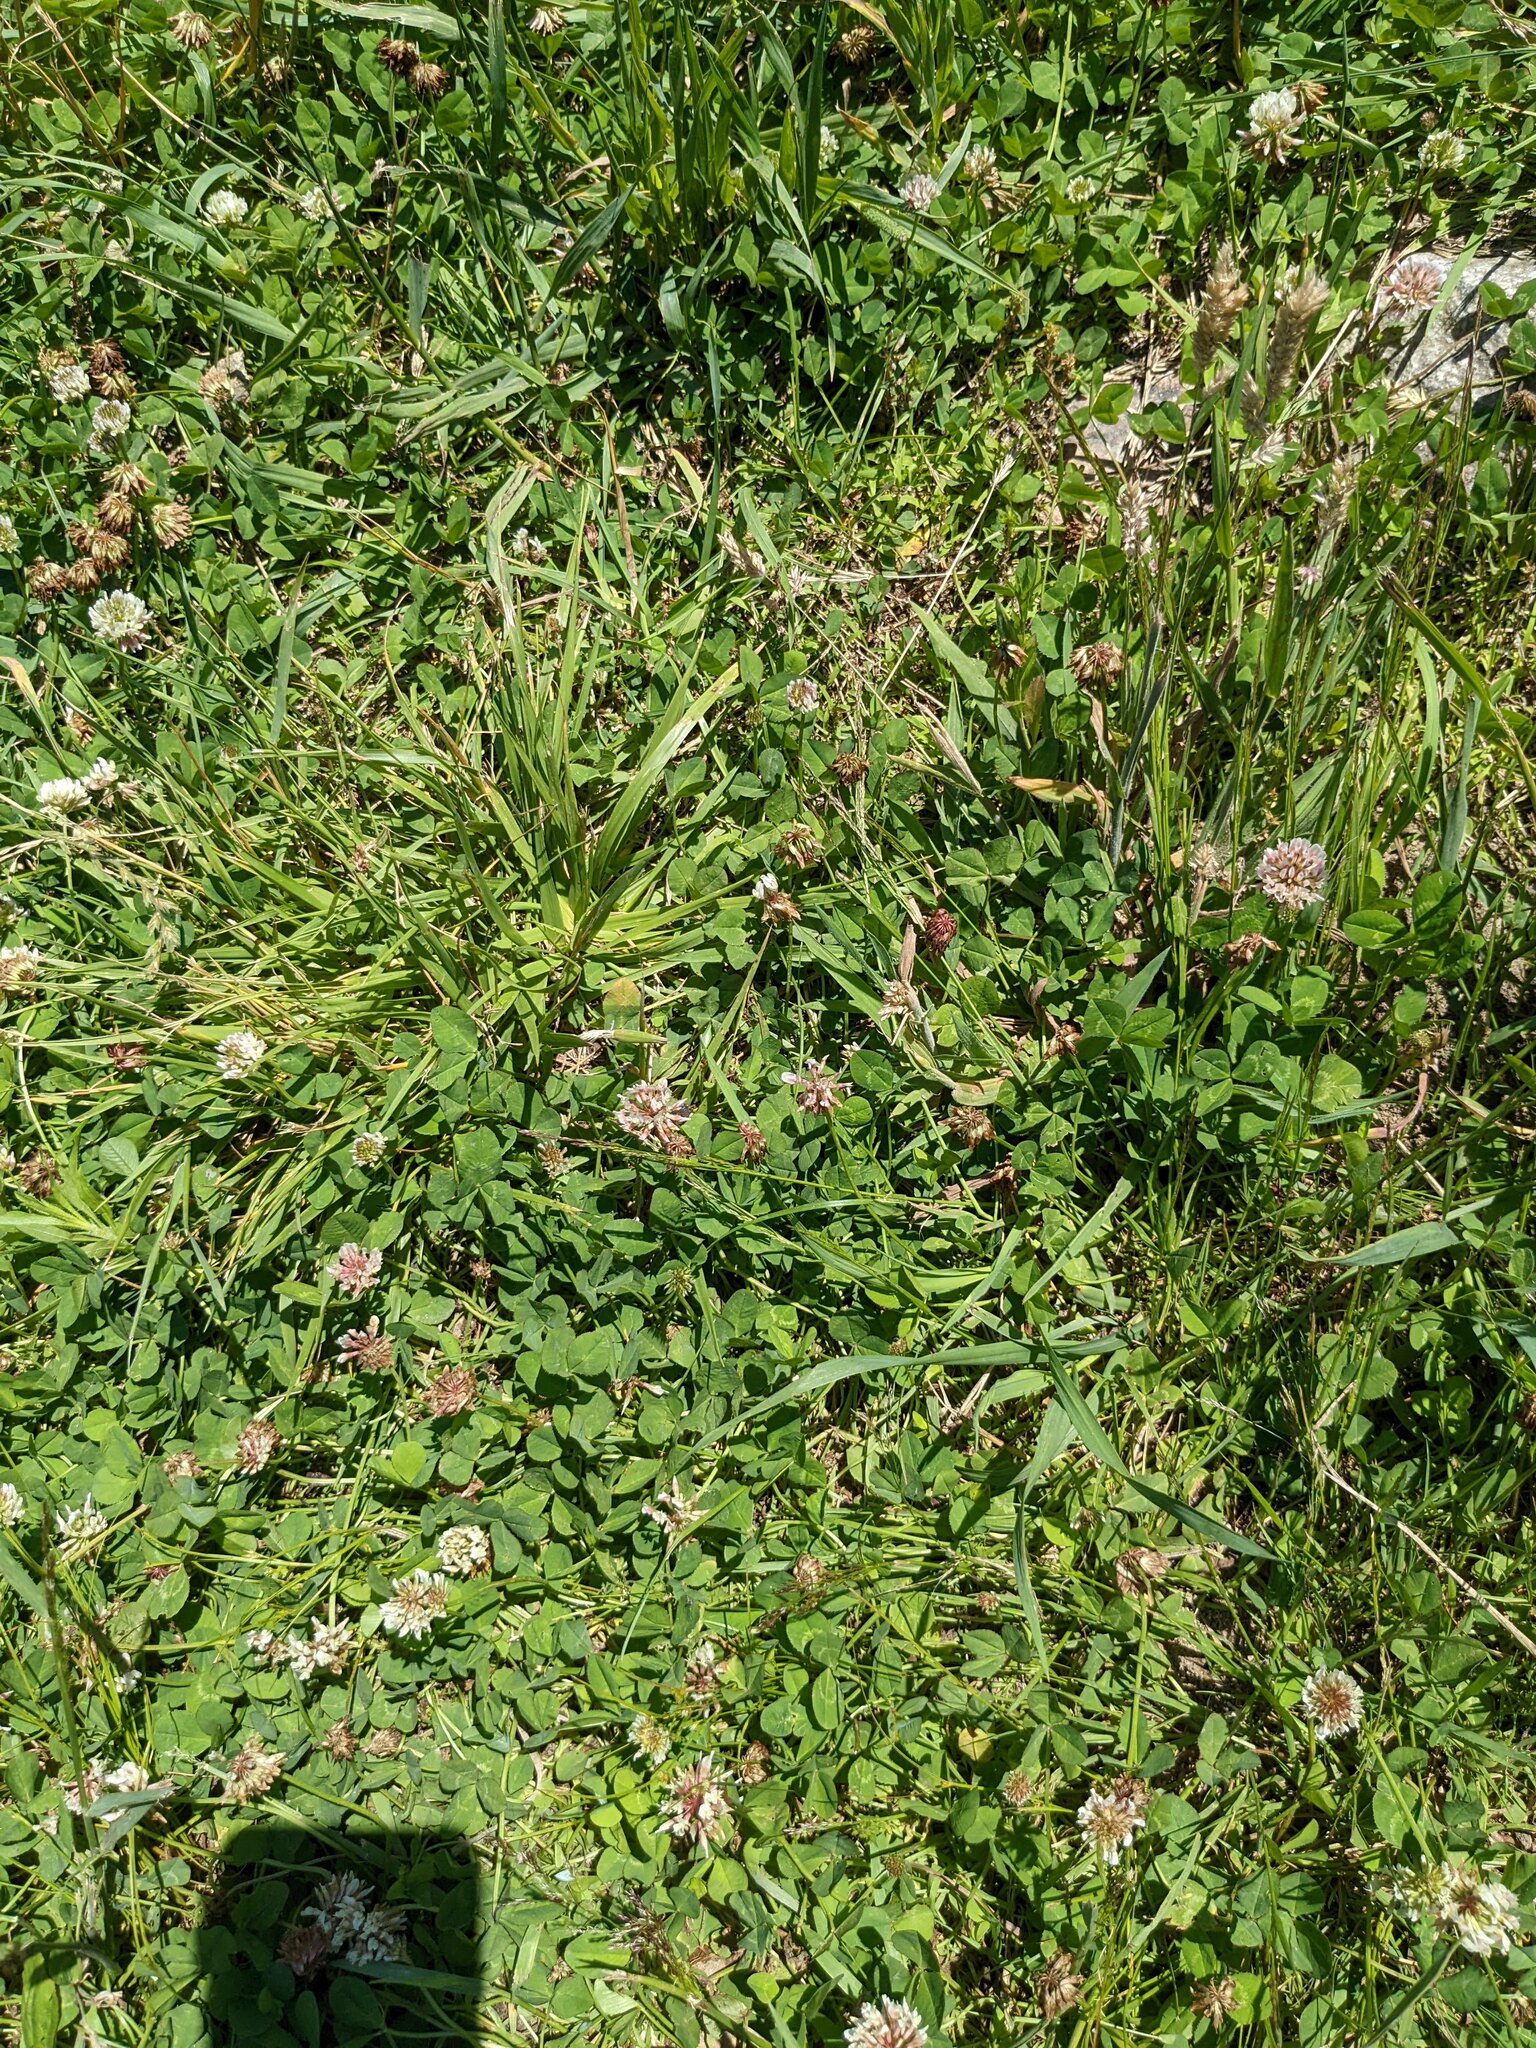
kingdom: Plantae
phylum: Tracheophyta
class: Magnoliopsida
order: Fabales
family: Fabaceae
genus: Trifolium
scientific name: Trifolium repens
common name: White clover
